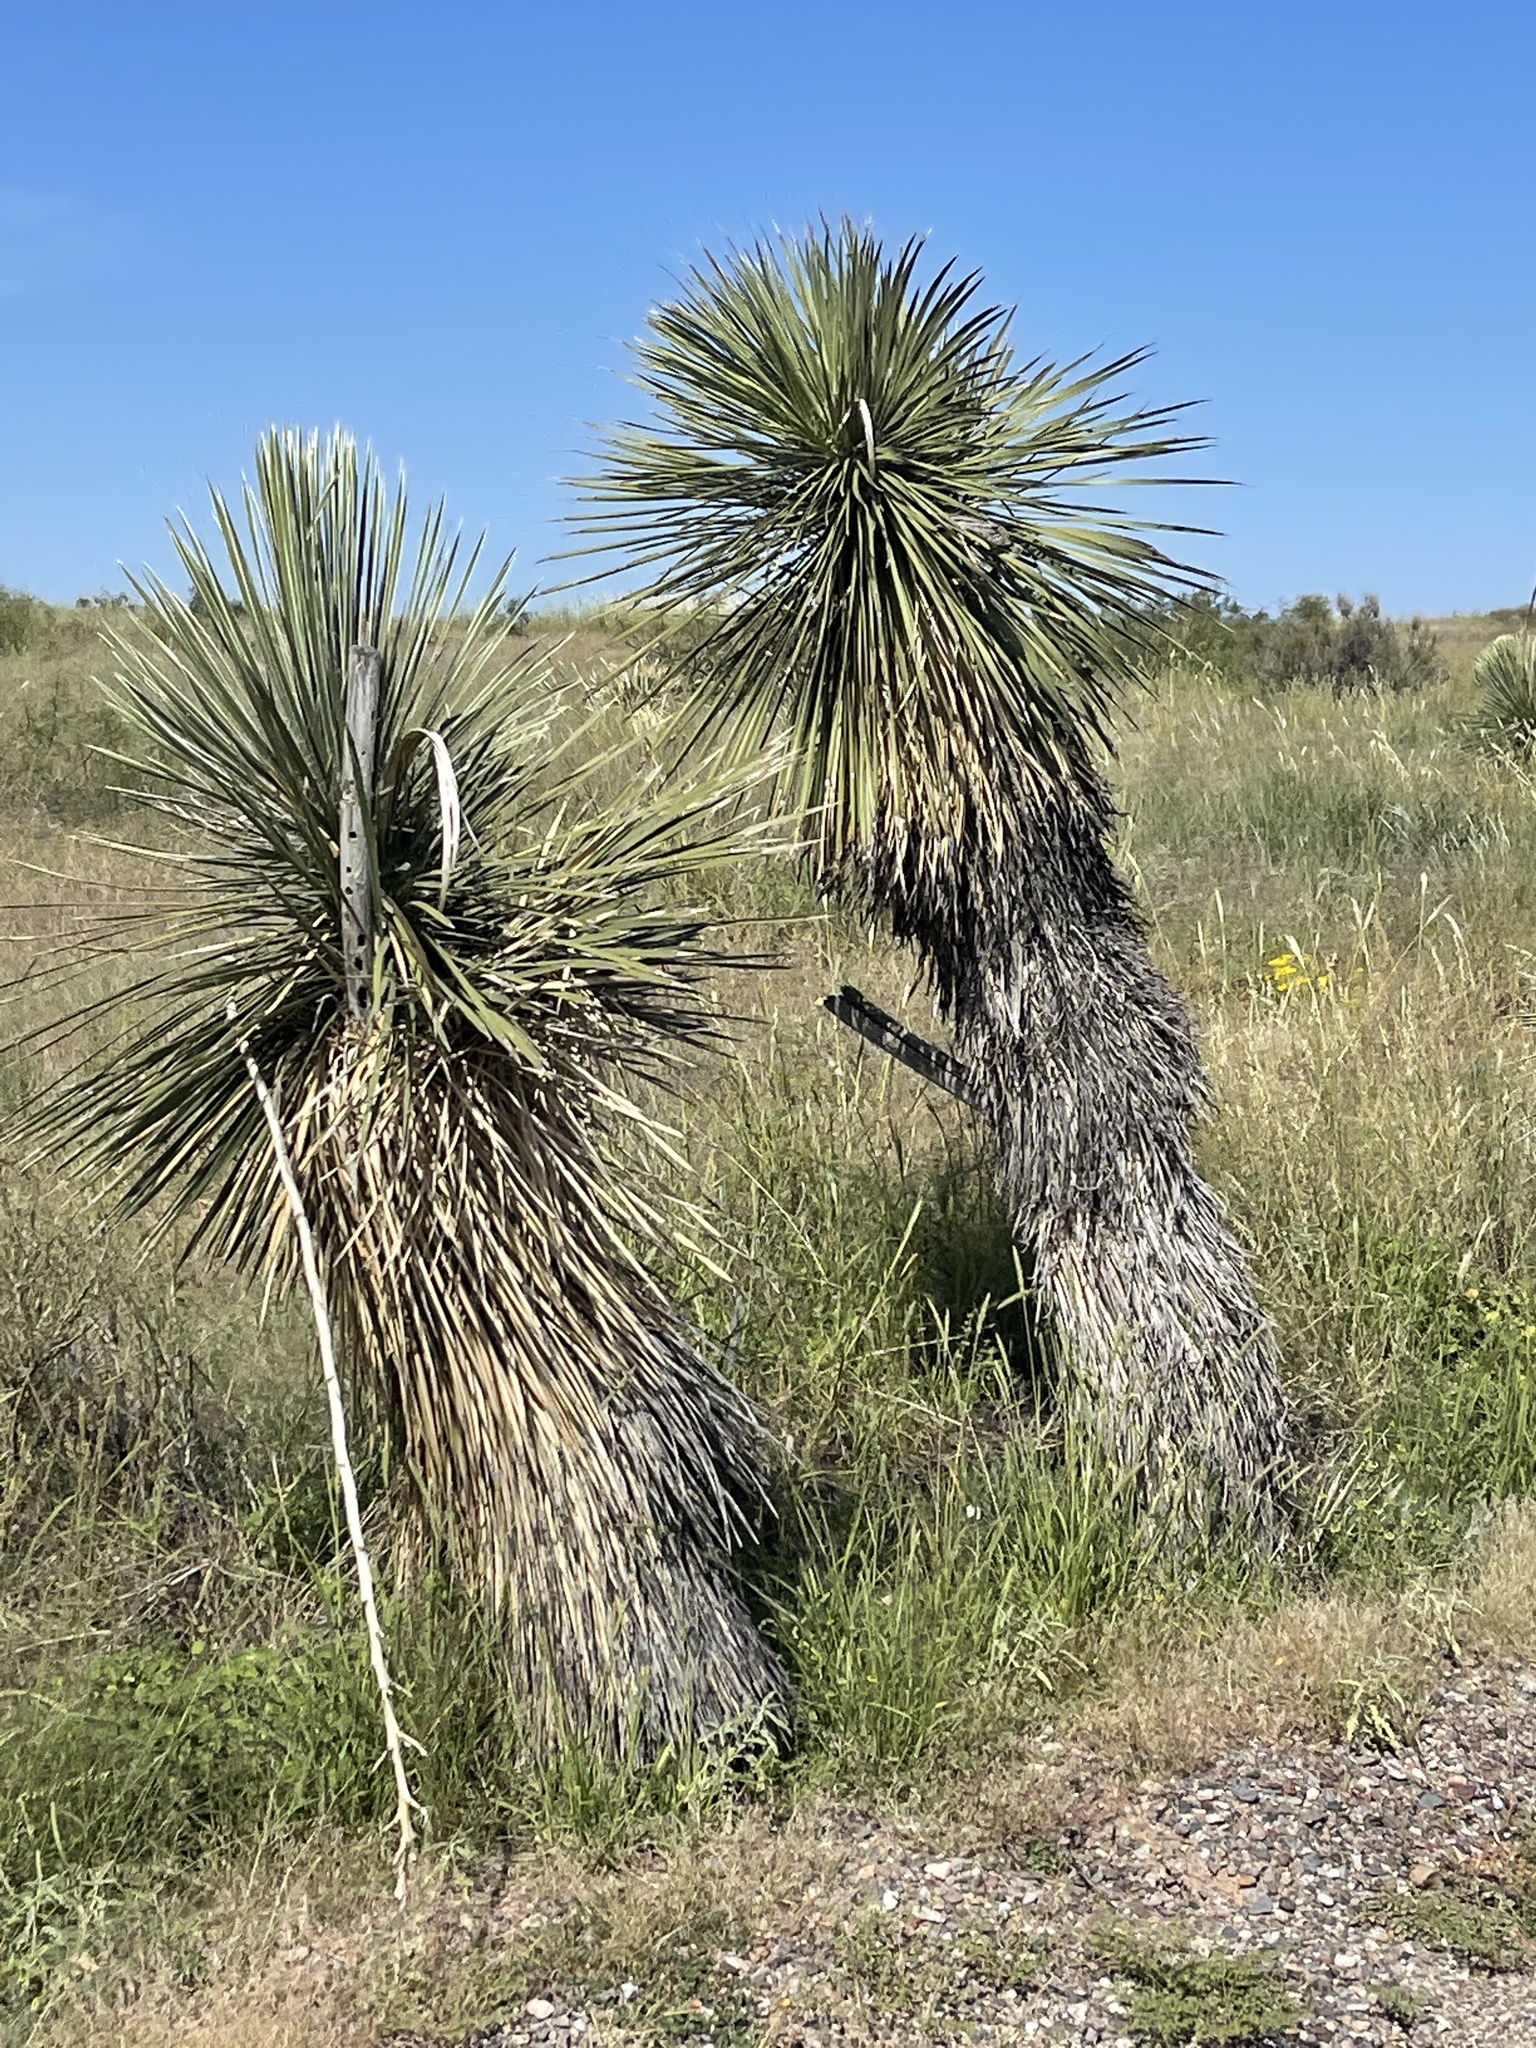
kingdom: Plantae
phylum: Tracheophyta
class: Liliopsida
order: Asparagales
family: Asparagaceae
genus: Yucca
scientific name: Yucca elata
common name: Palmella
